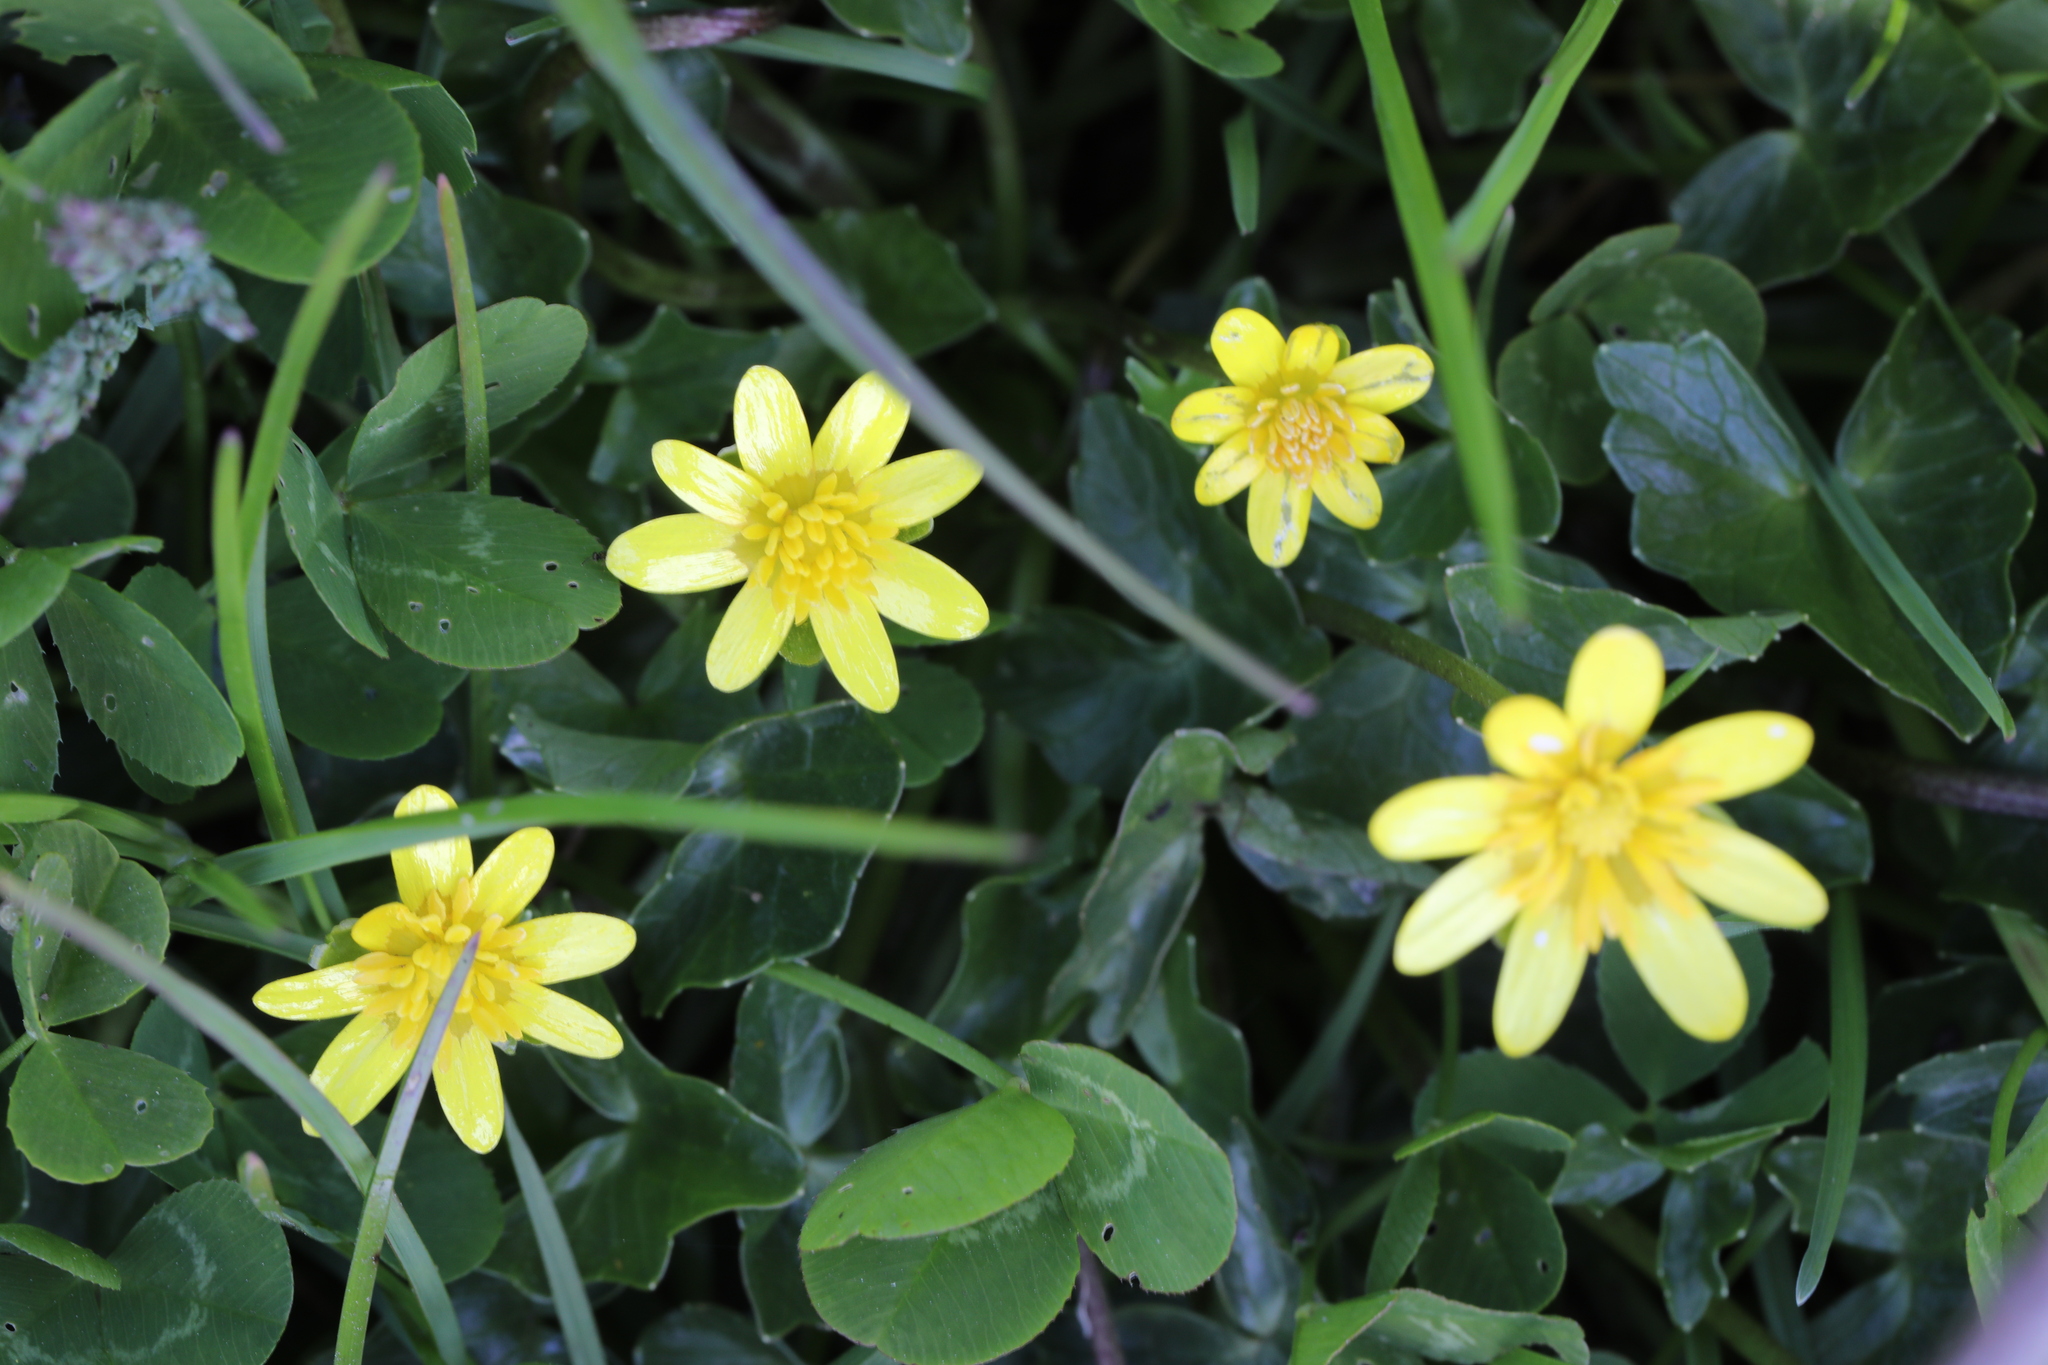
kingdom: Plantae
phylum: Tracheophyta
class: Magnoliopsida
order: Ranunculales
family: Ranunculaceae
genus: Ficaria
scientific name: Ficaria verna
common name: Lesser celandine
